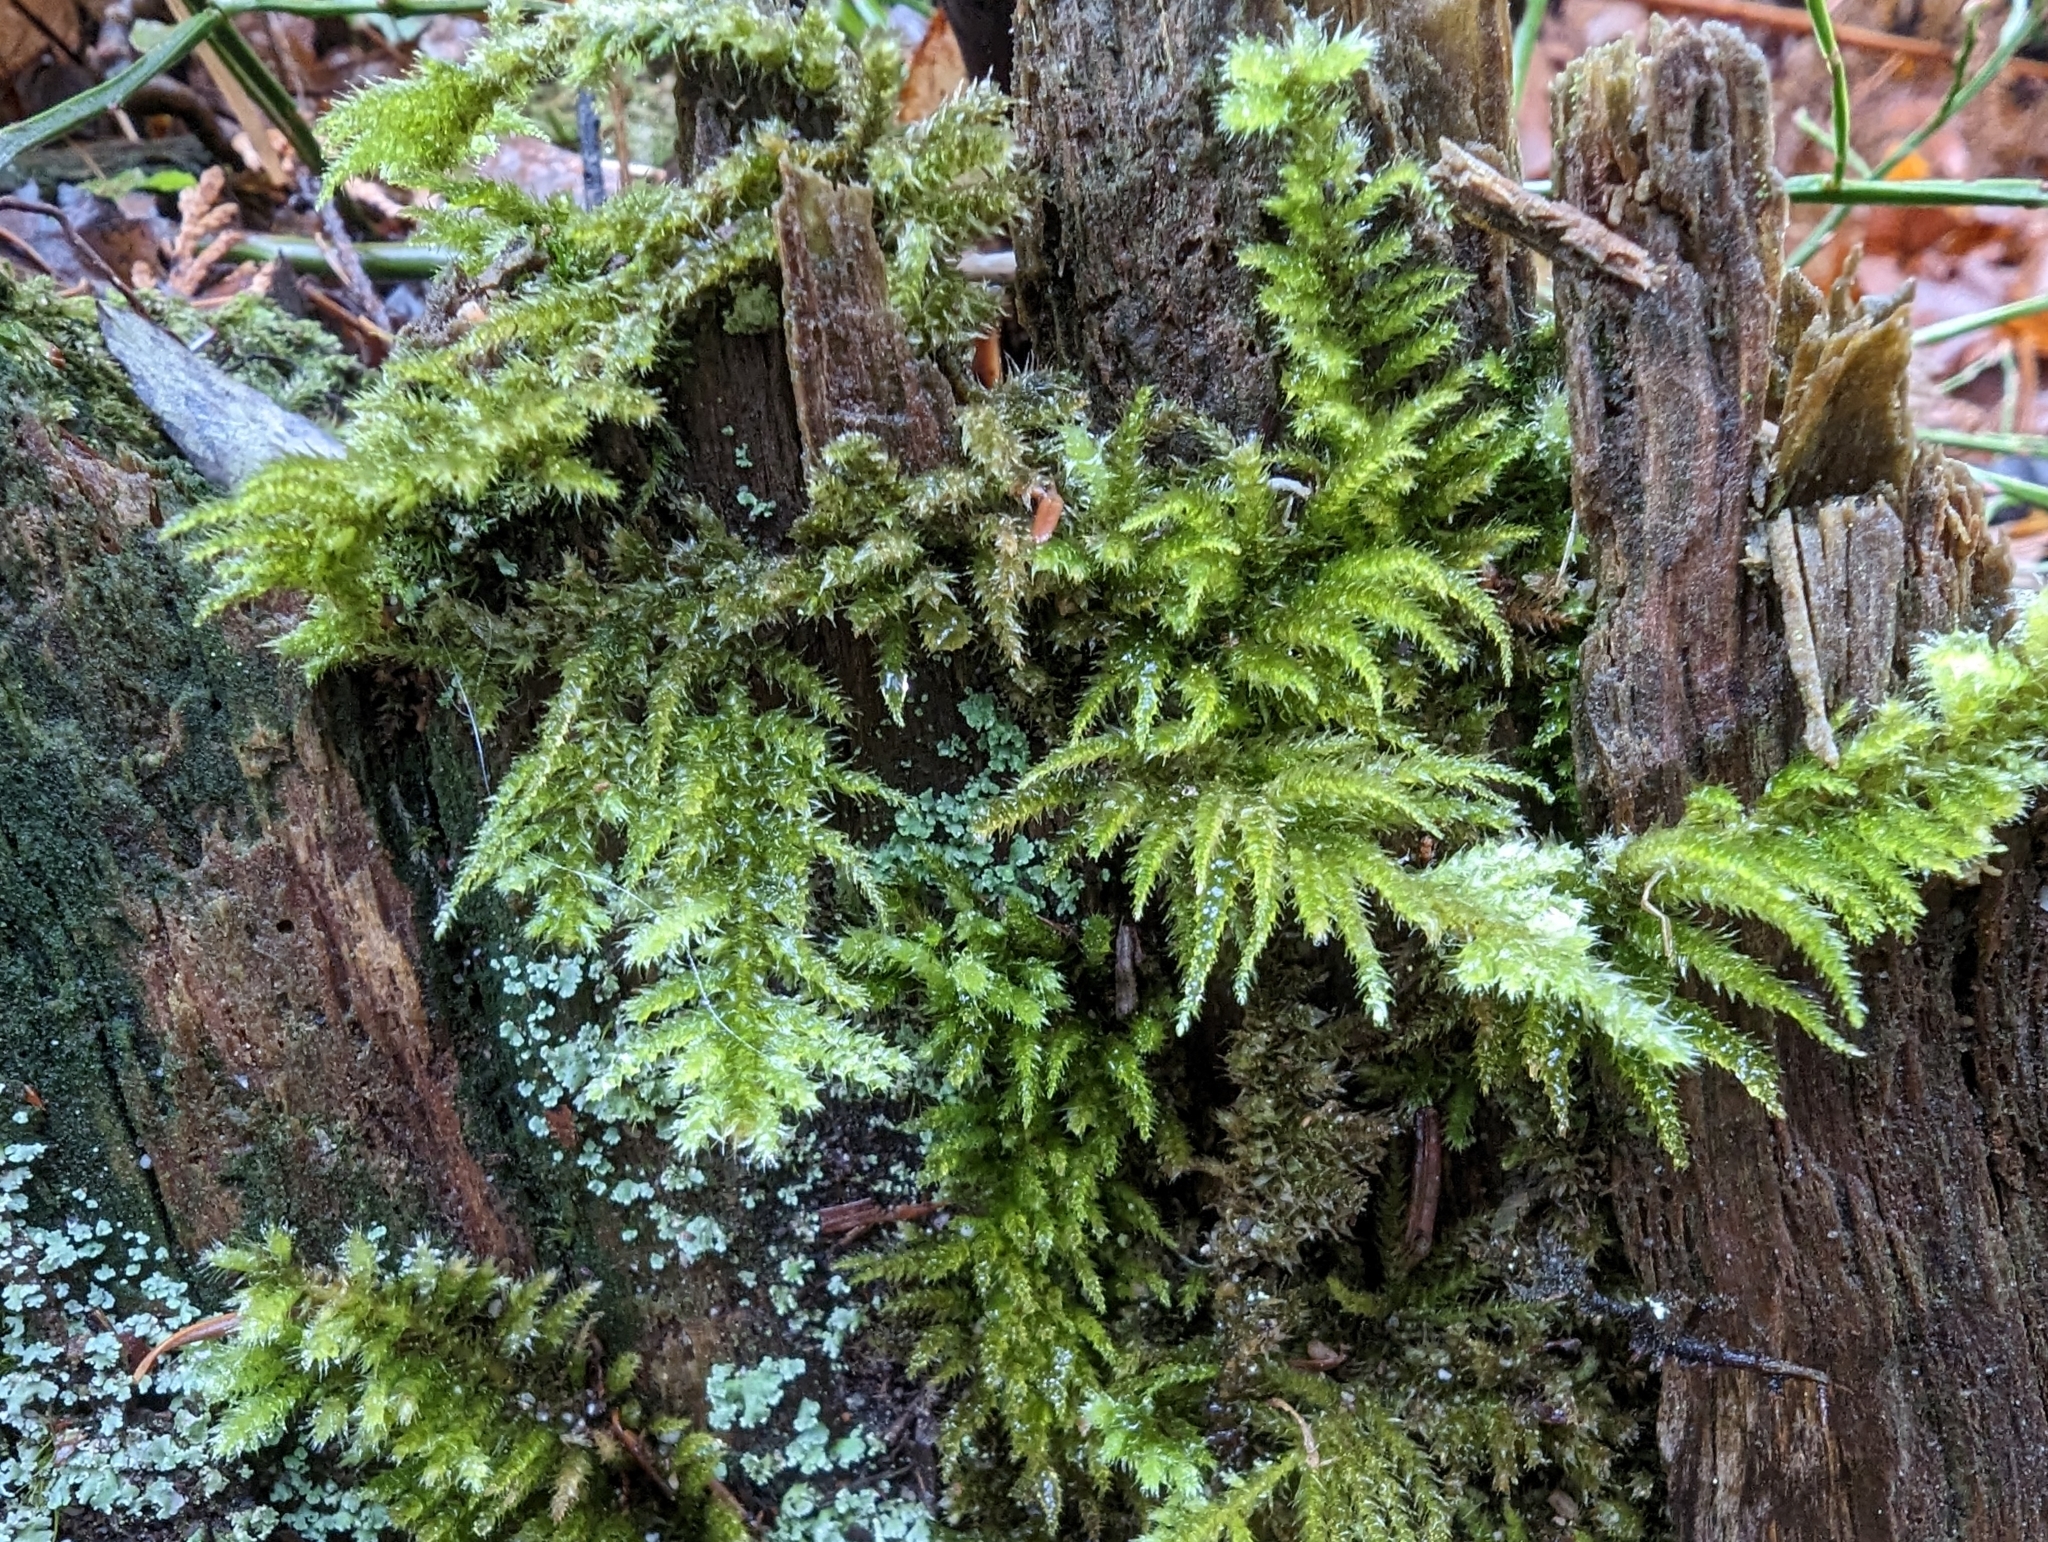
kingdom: Plantae
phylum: Bryophyta
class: Bryopsida
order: Hypnales
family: Brachytheciaceae
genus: Kindbergia
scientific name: Kindbergia oregana
